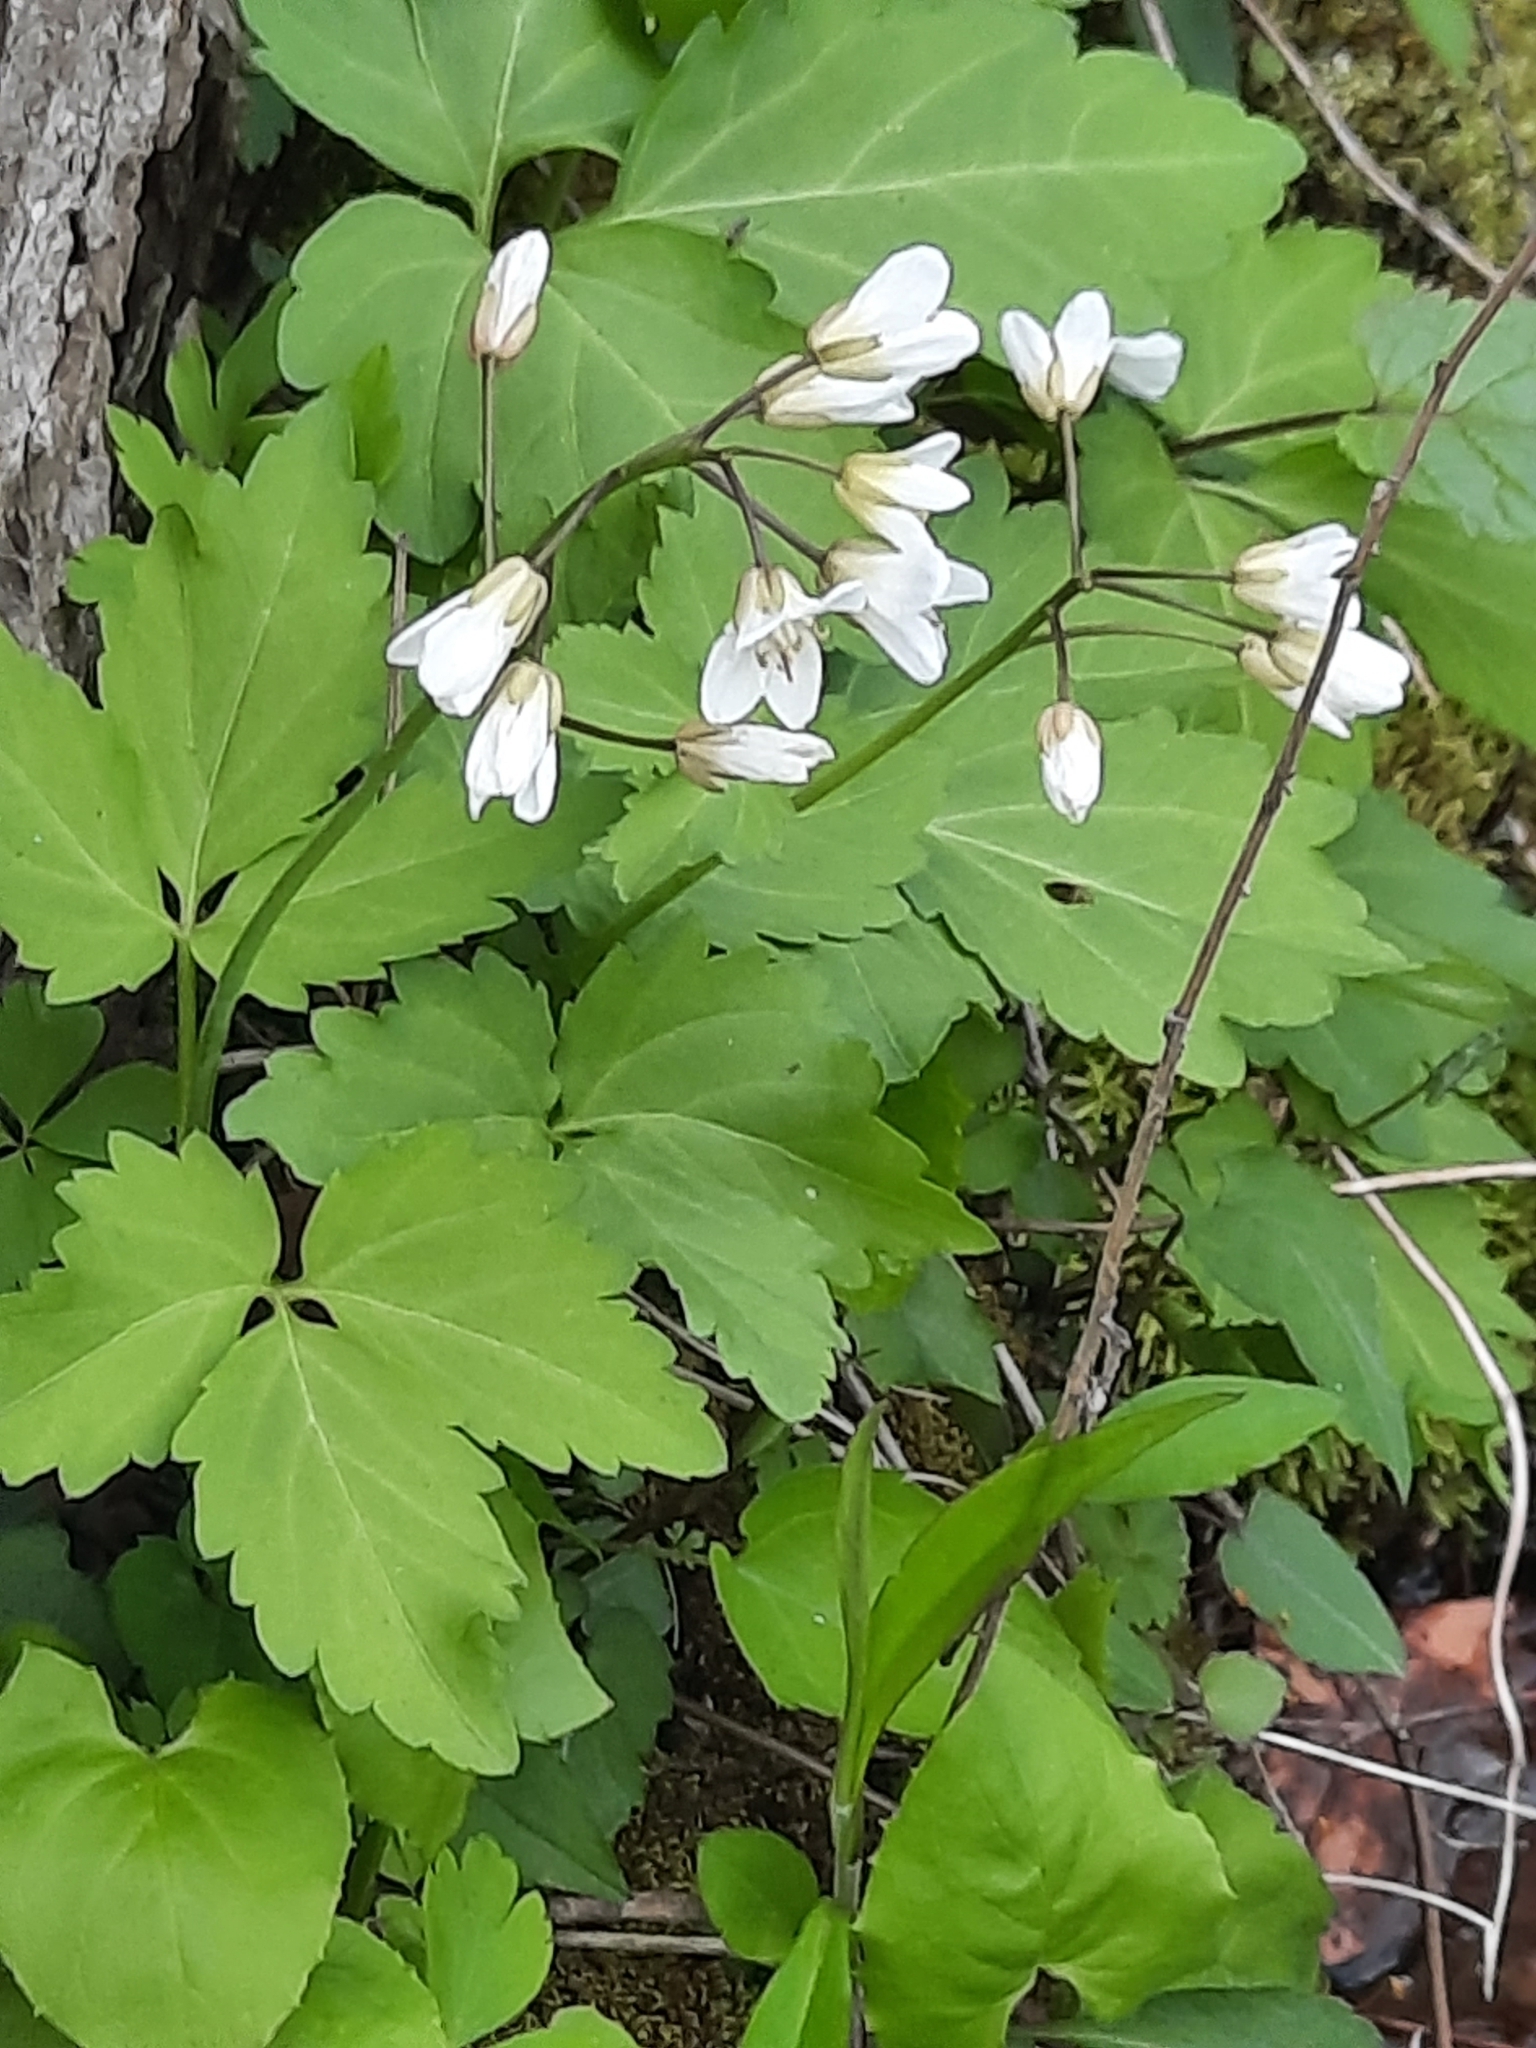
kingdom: Plantae
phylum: Tracheophyta
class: Magnoliopsida
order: Brassicales
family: Brassicaceae
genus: Cardamine
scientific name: Cardamine diphylla
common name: Broad-leaved toothwort
